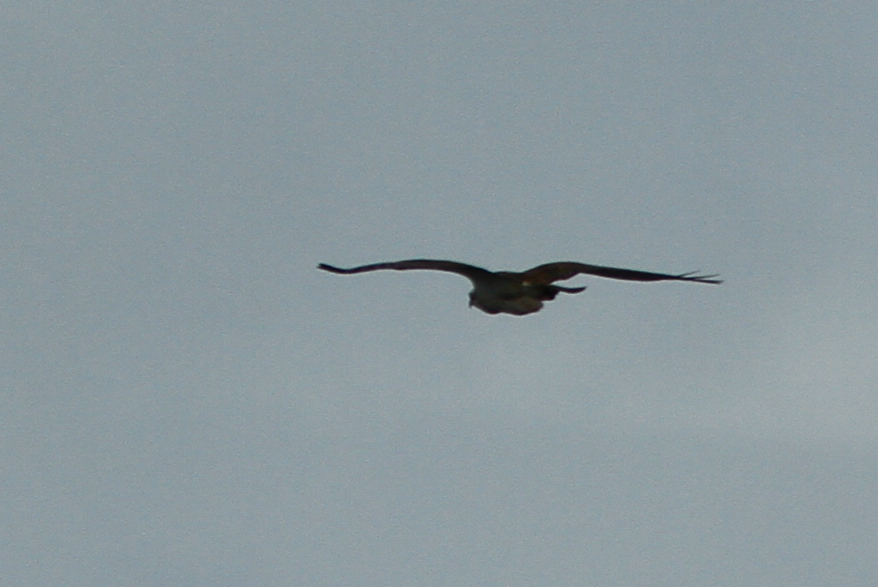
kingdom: Animalia
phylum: Chordata
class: Aves
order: Accipitriformes
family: Pandionidae
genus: Pandion
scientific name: Pandion haliaetus
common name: Osprey
